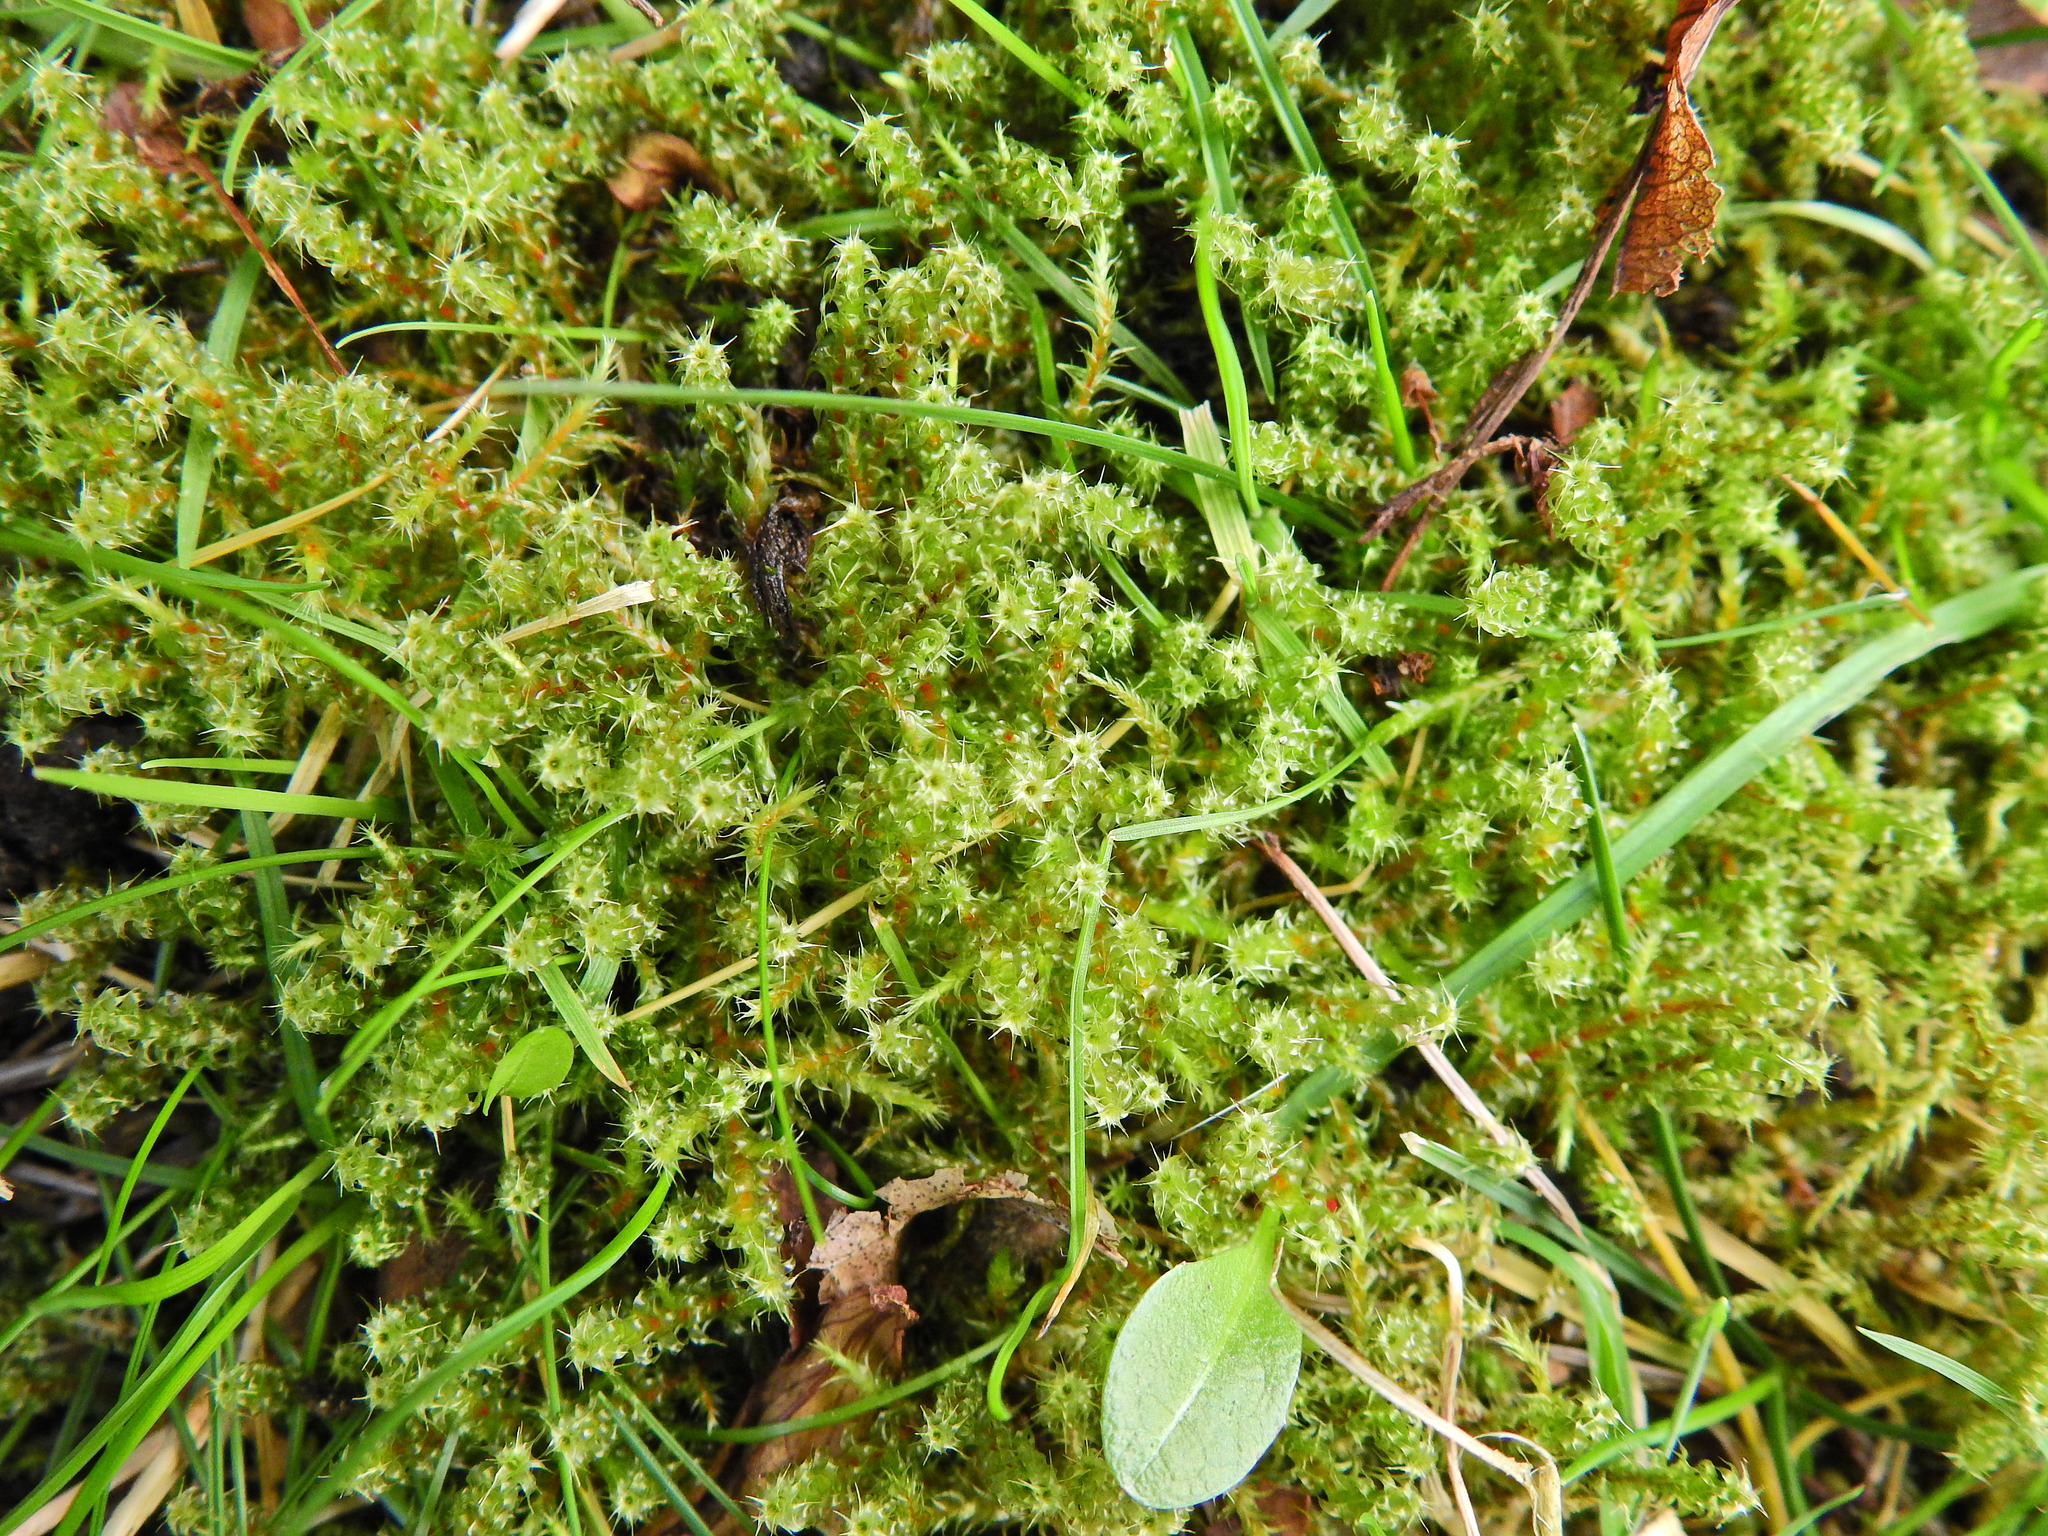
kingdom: Plantae
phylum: Bryophyta
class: Bryopsida
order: Hypnales
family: Hylocomiaceae
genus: Rhytidiadelphus
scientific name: Rhytidiadelphus squarrosus
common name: Springy turf-moss
